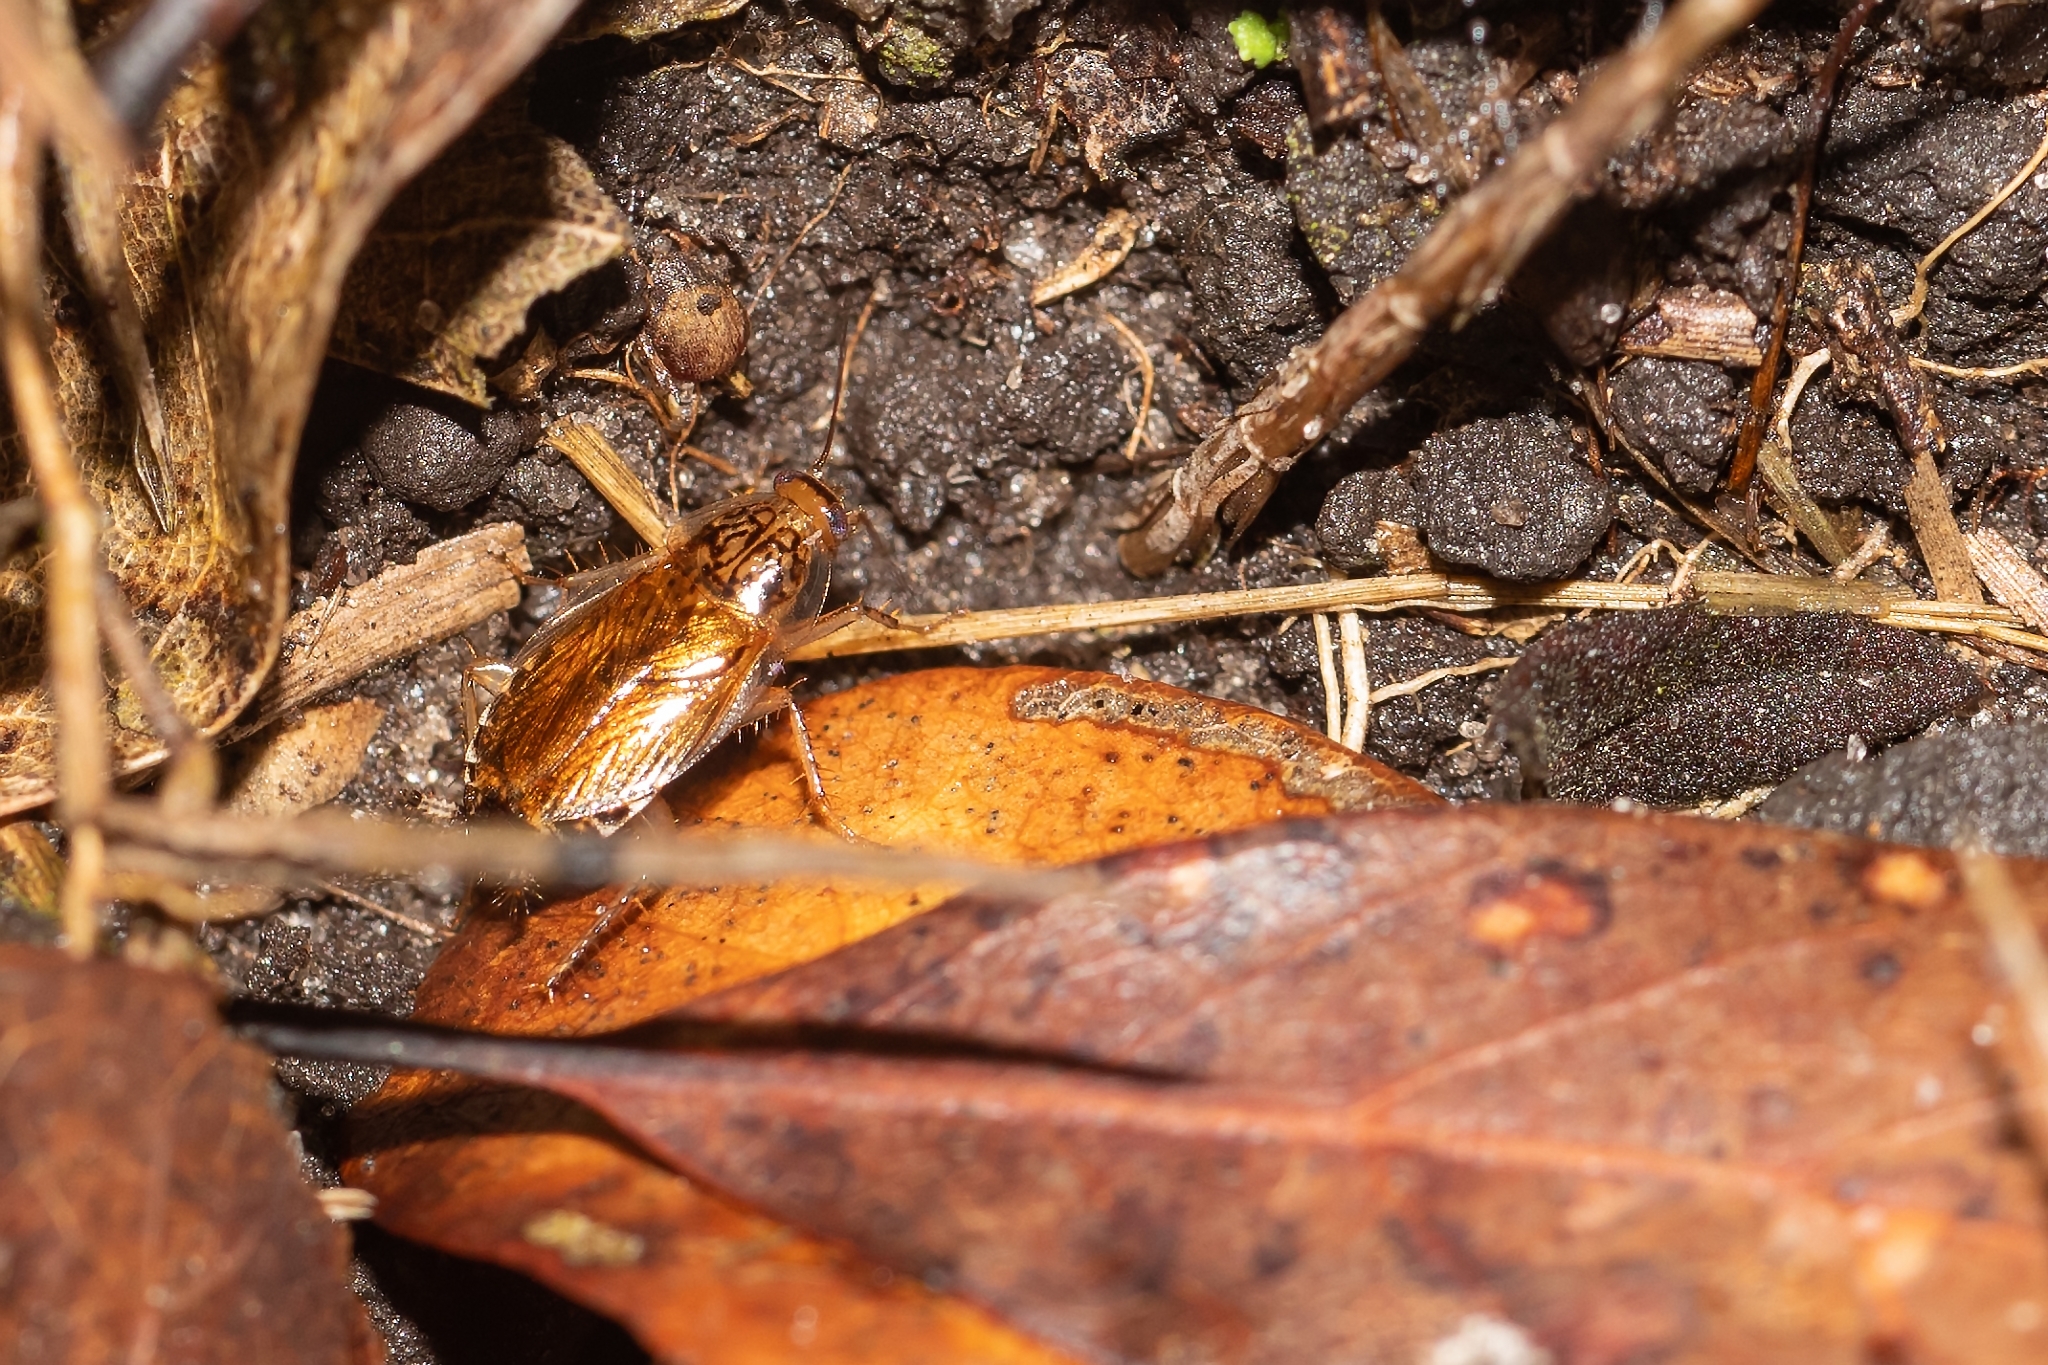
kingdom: Animalia
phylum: Arthropoda
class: Insecta
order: Blattodea
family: Ectobiidae
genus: Cariblatta
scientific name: Cariblatta lutea
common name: Small yellow cockroach
